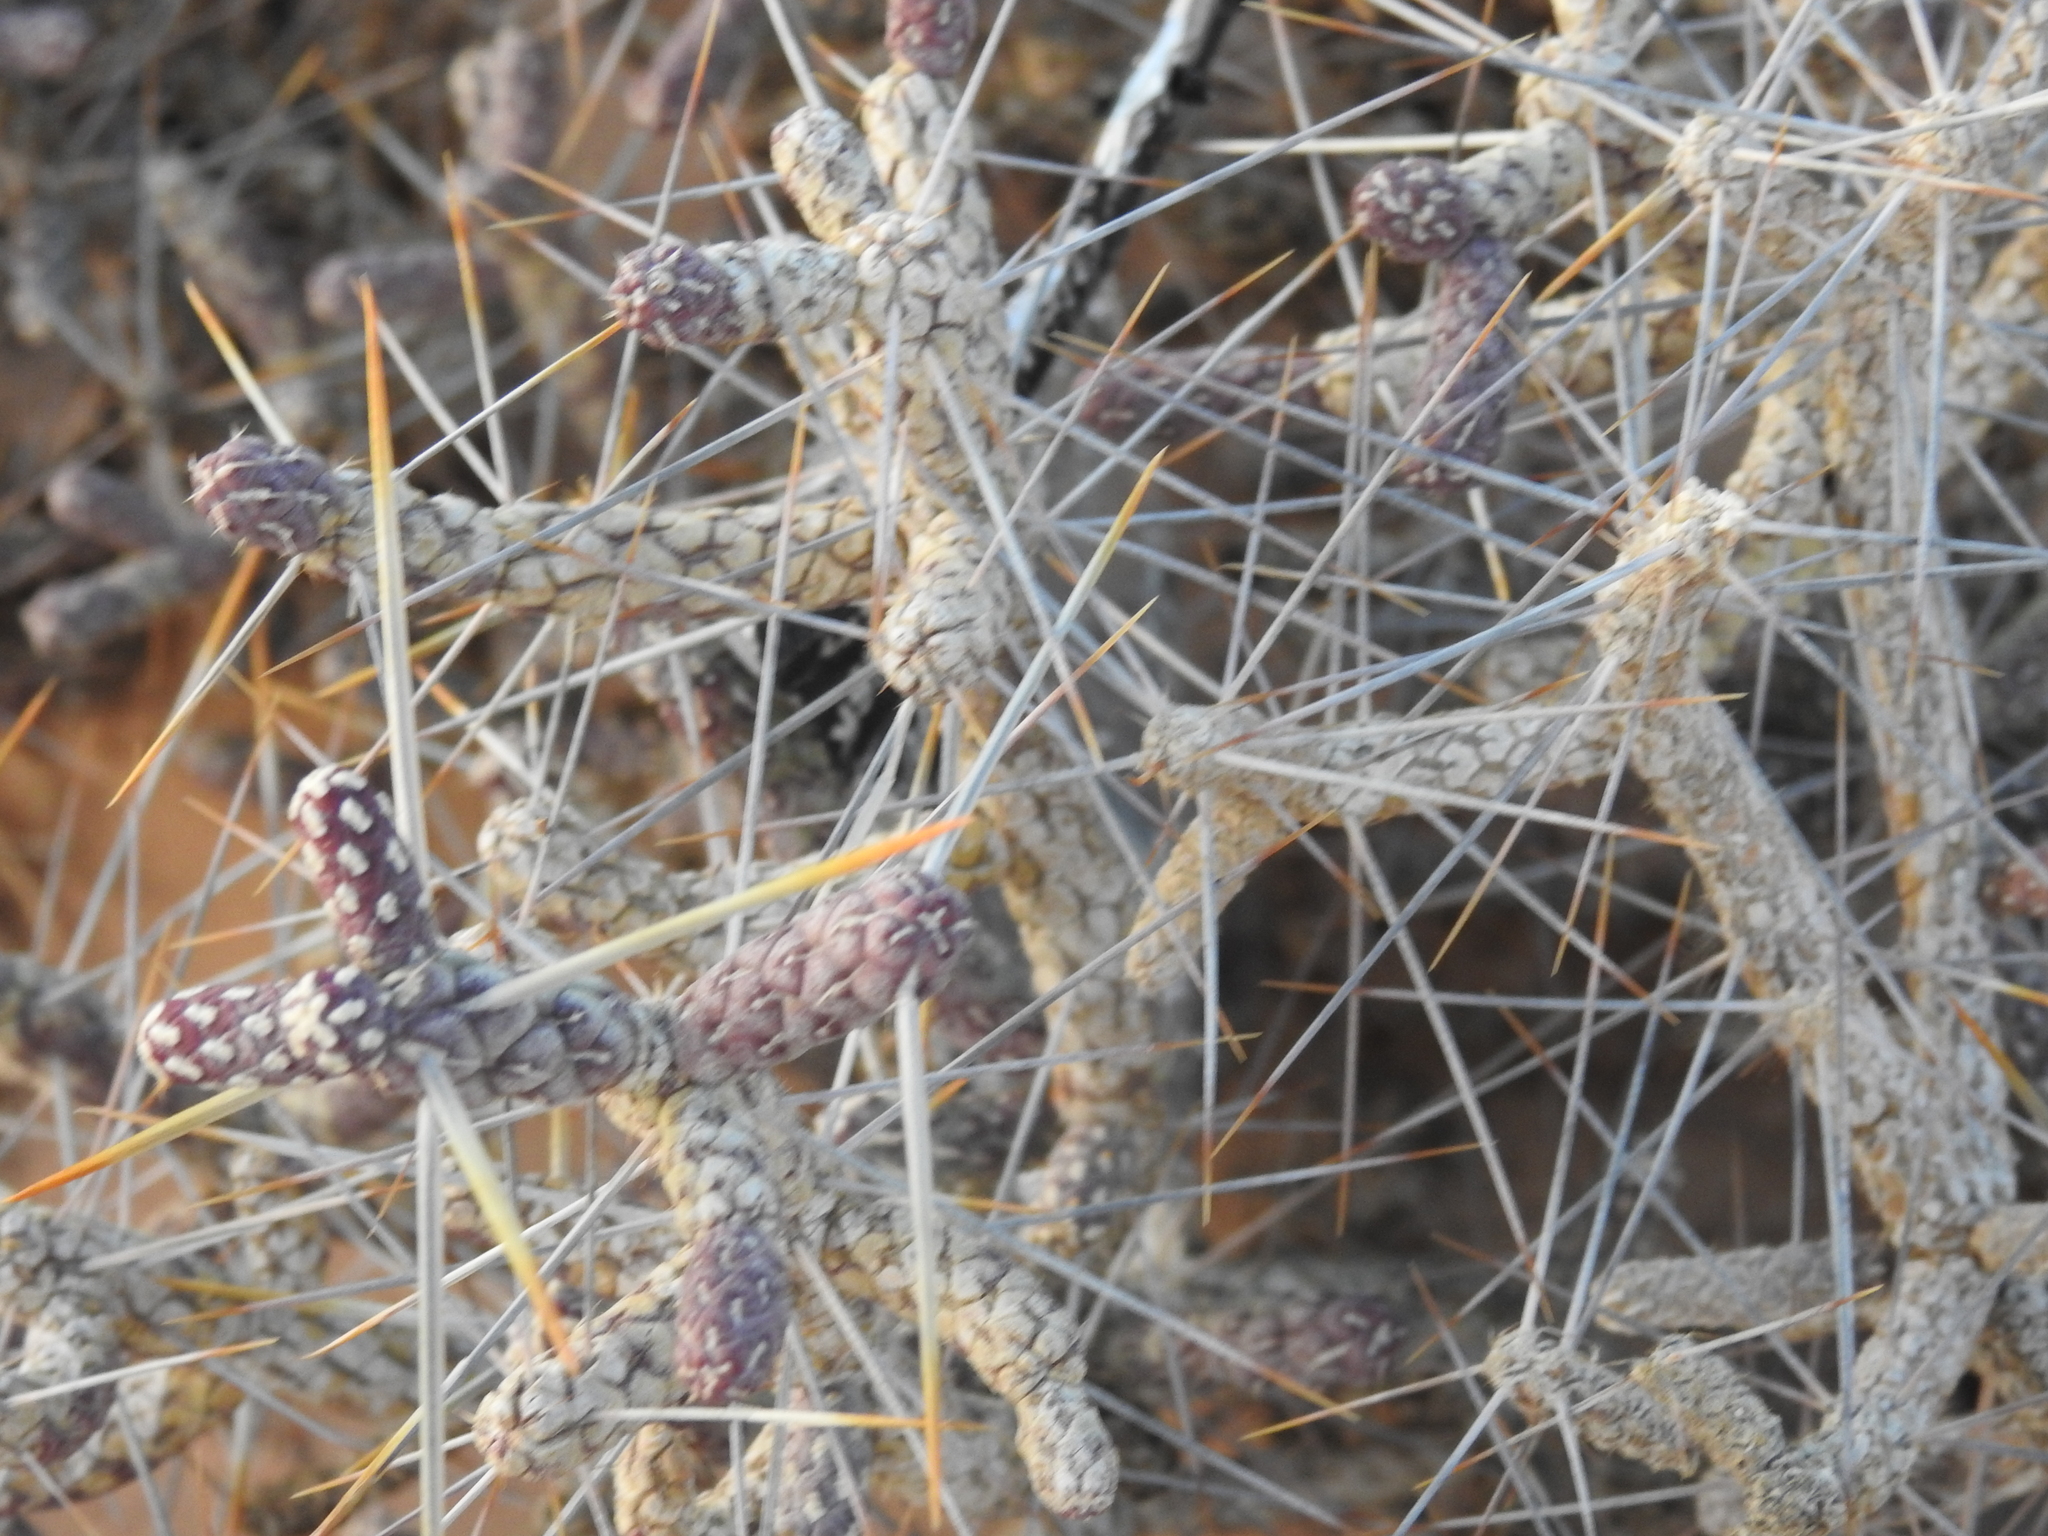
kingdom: Plantae
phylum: Tracheophyta
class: Magnoliopsida
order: Caryophyllales
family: Cactaceae
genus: Cylindropuntia
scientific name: Cylindropuntia ramosissima
